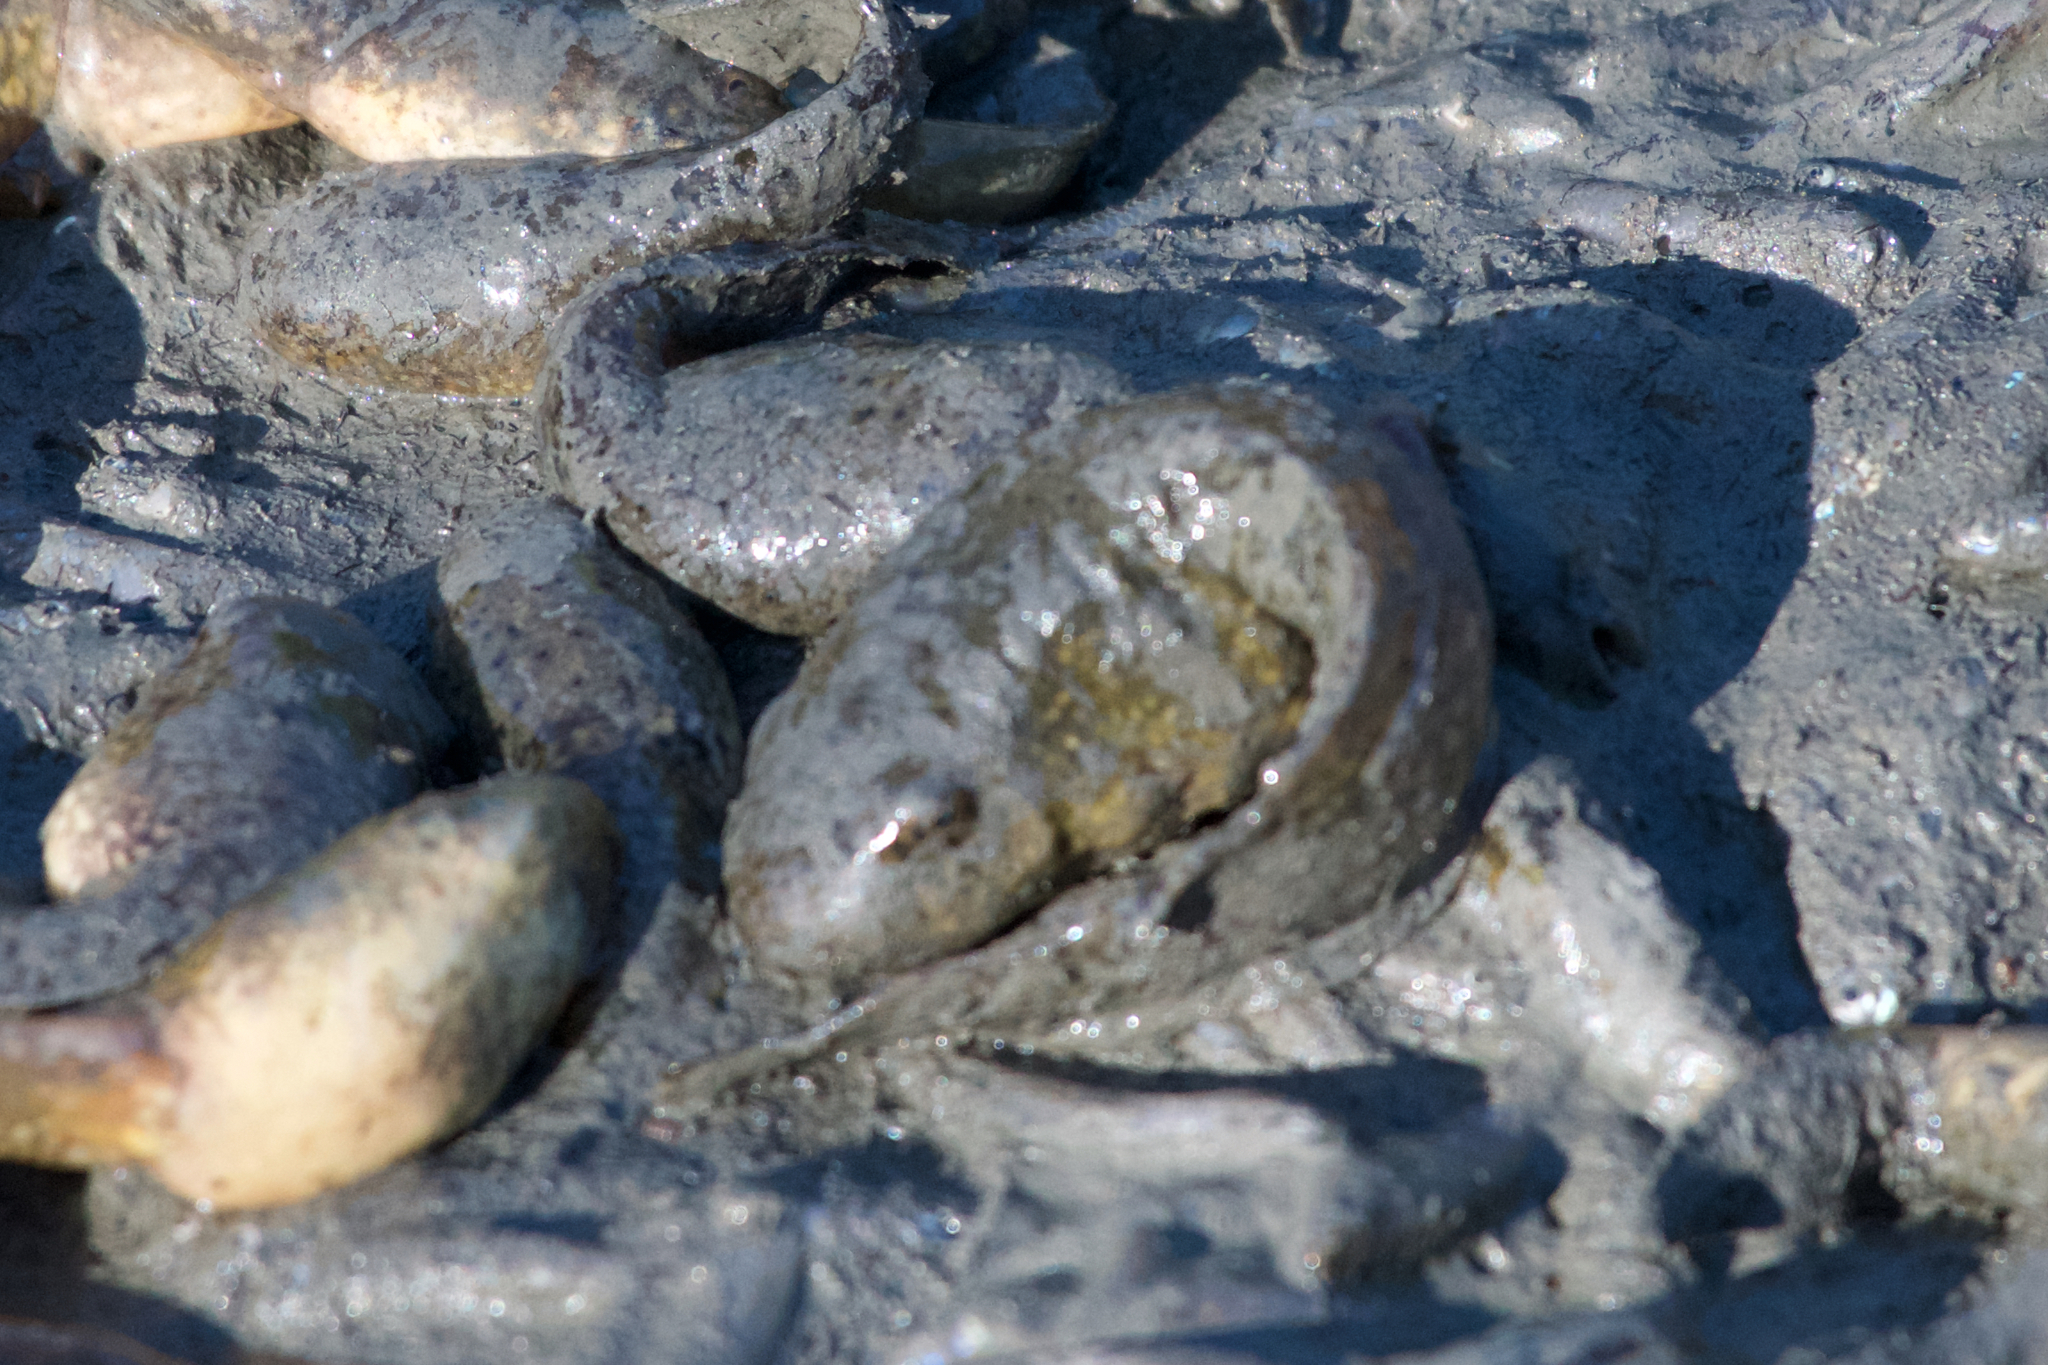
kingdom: Animalia
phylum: Chordata
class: Amphibia
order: Anura
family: Ranidae
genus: Lithobates
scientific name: Lithobates catesbeianus
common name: American bullfrog
